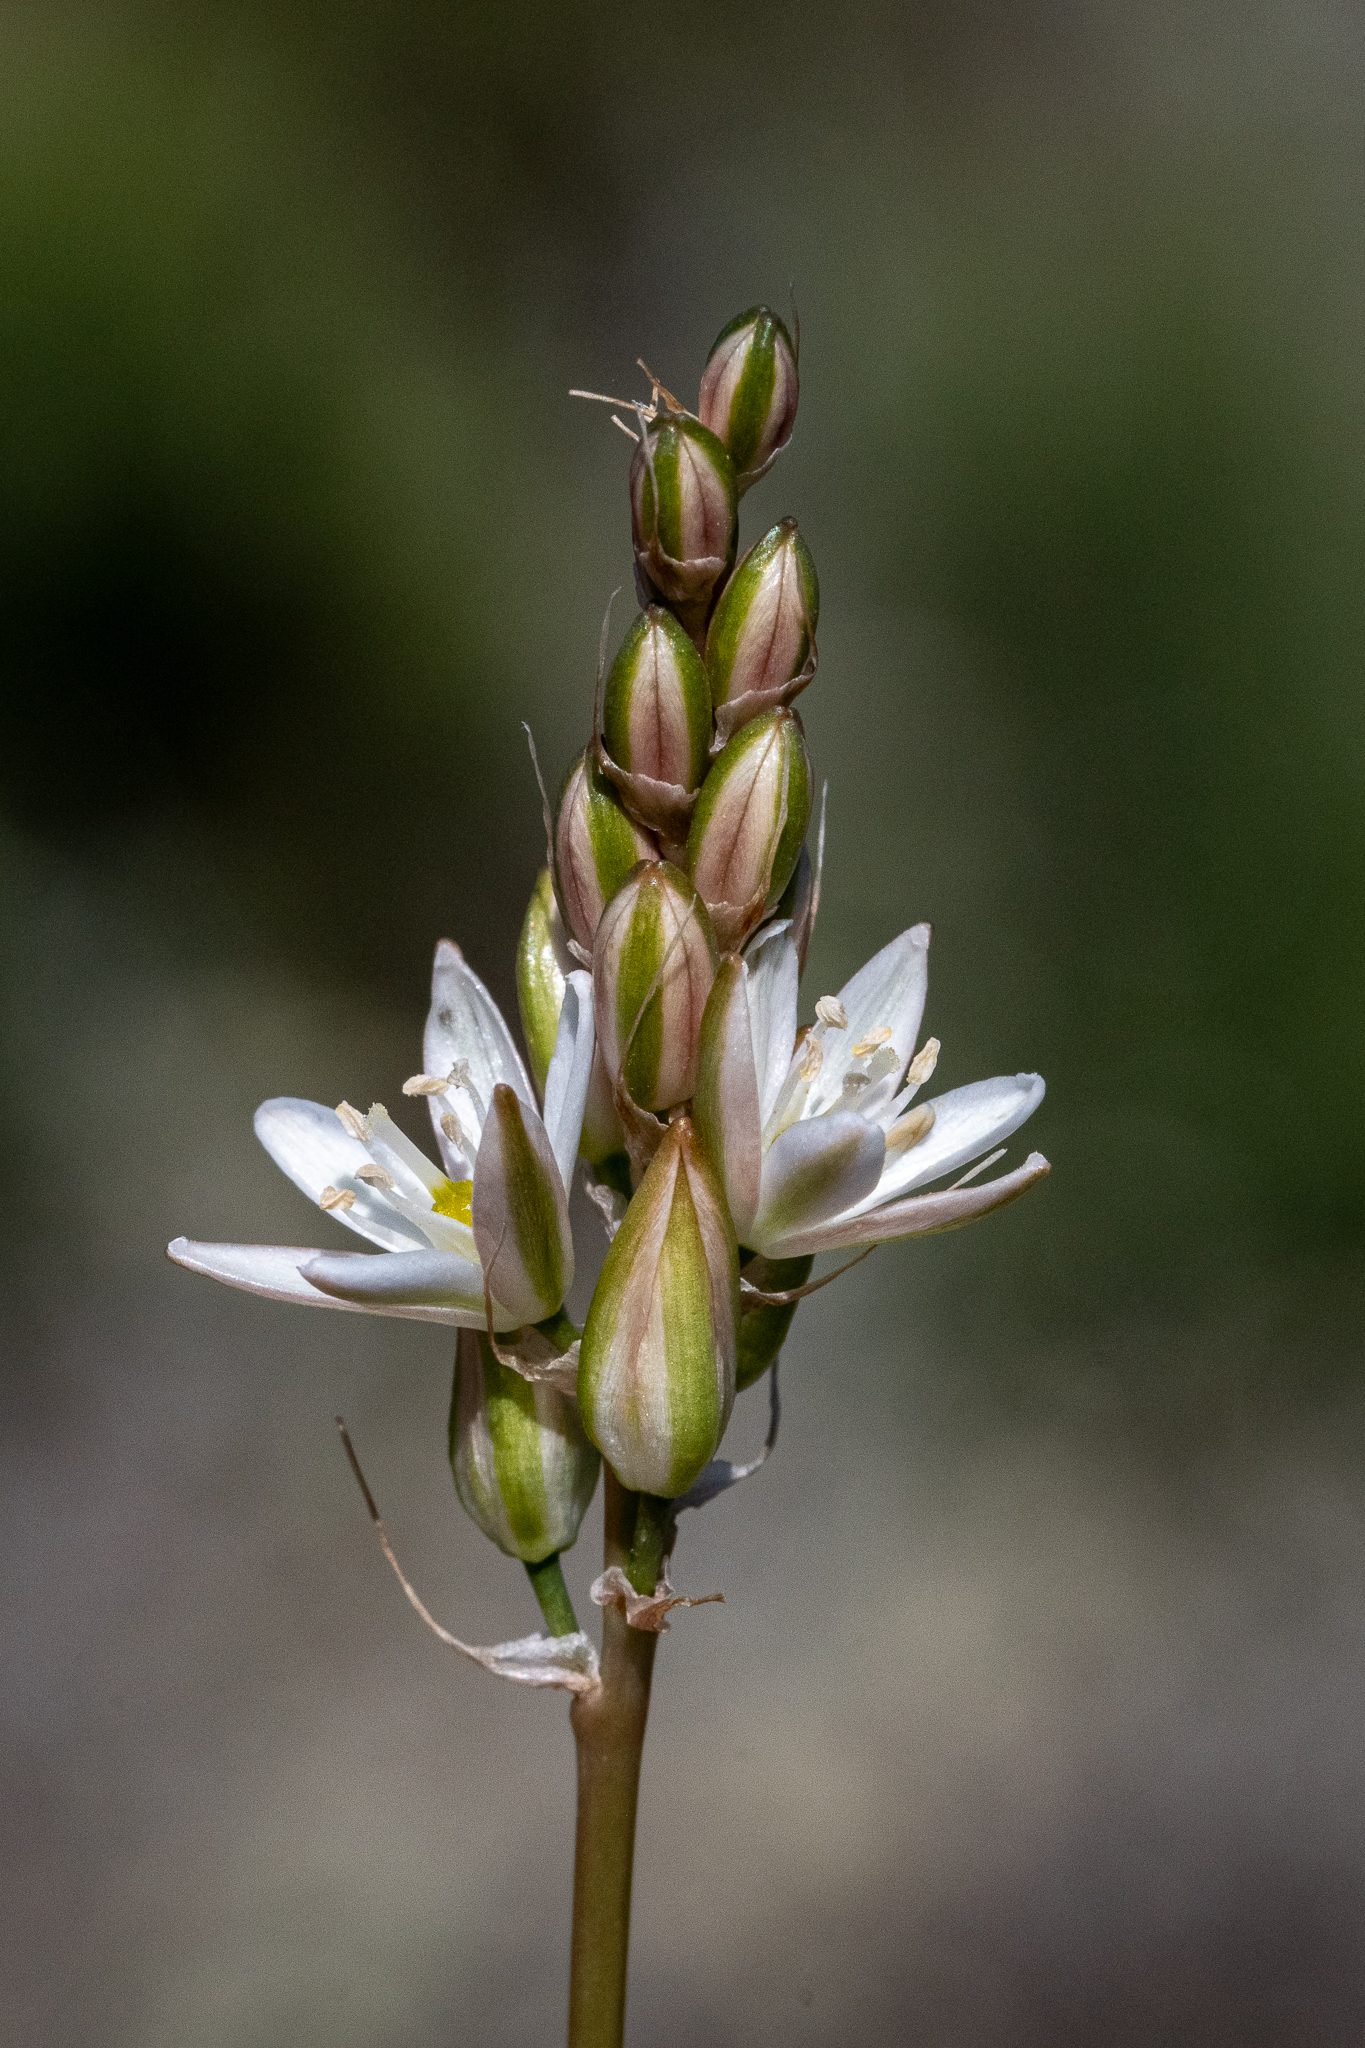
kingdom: Plantae
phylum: Tracheophyta
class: Liliopsida
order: Asparagales
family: Asparagaceae
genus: Ornithogalum
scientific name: Ornithogalum graminifolium
